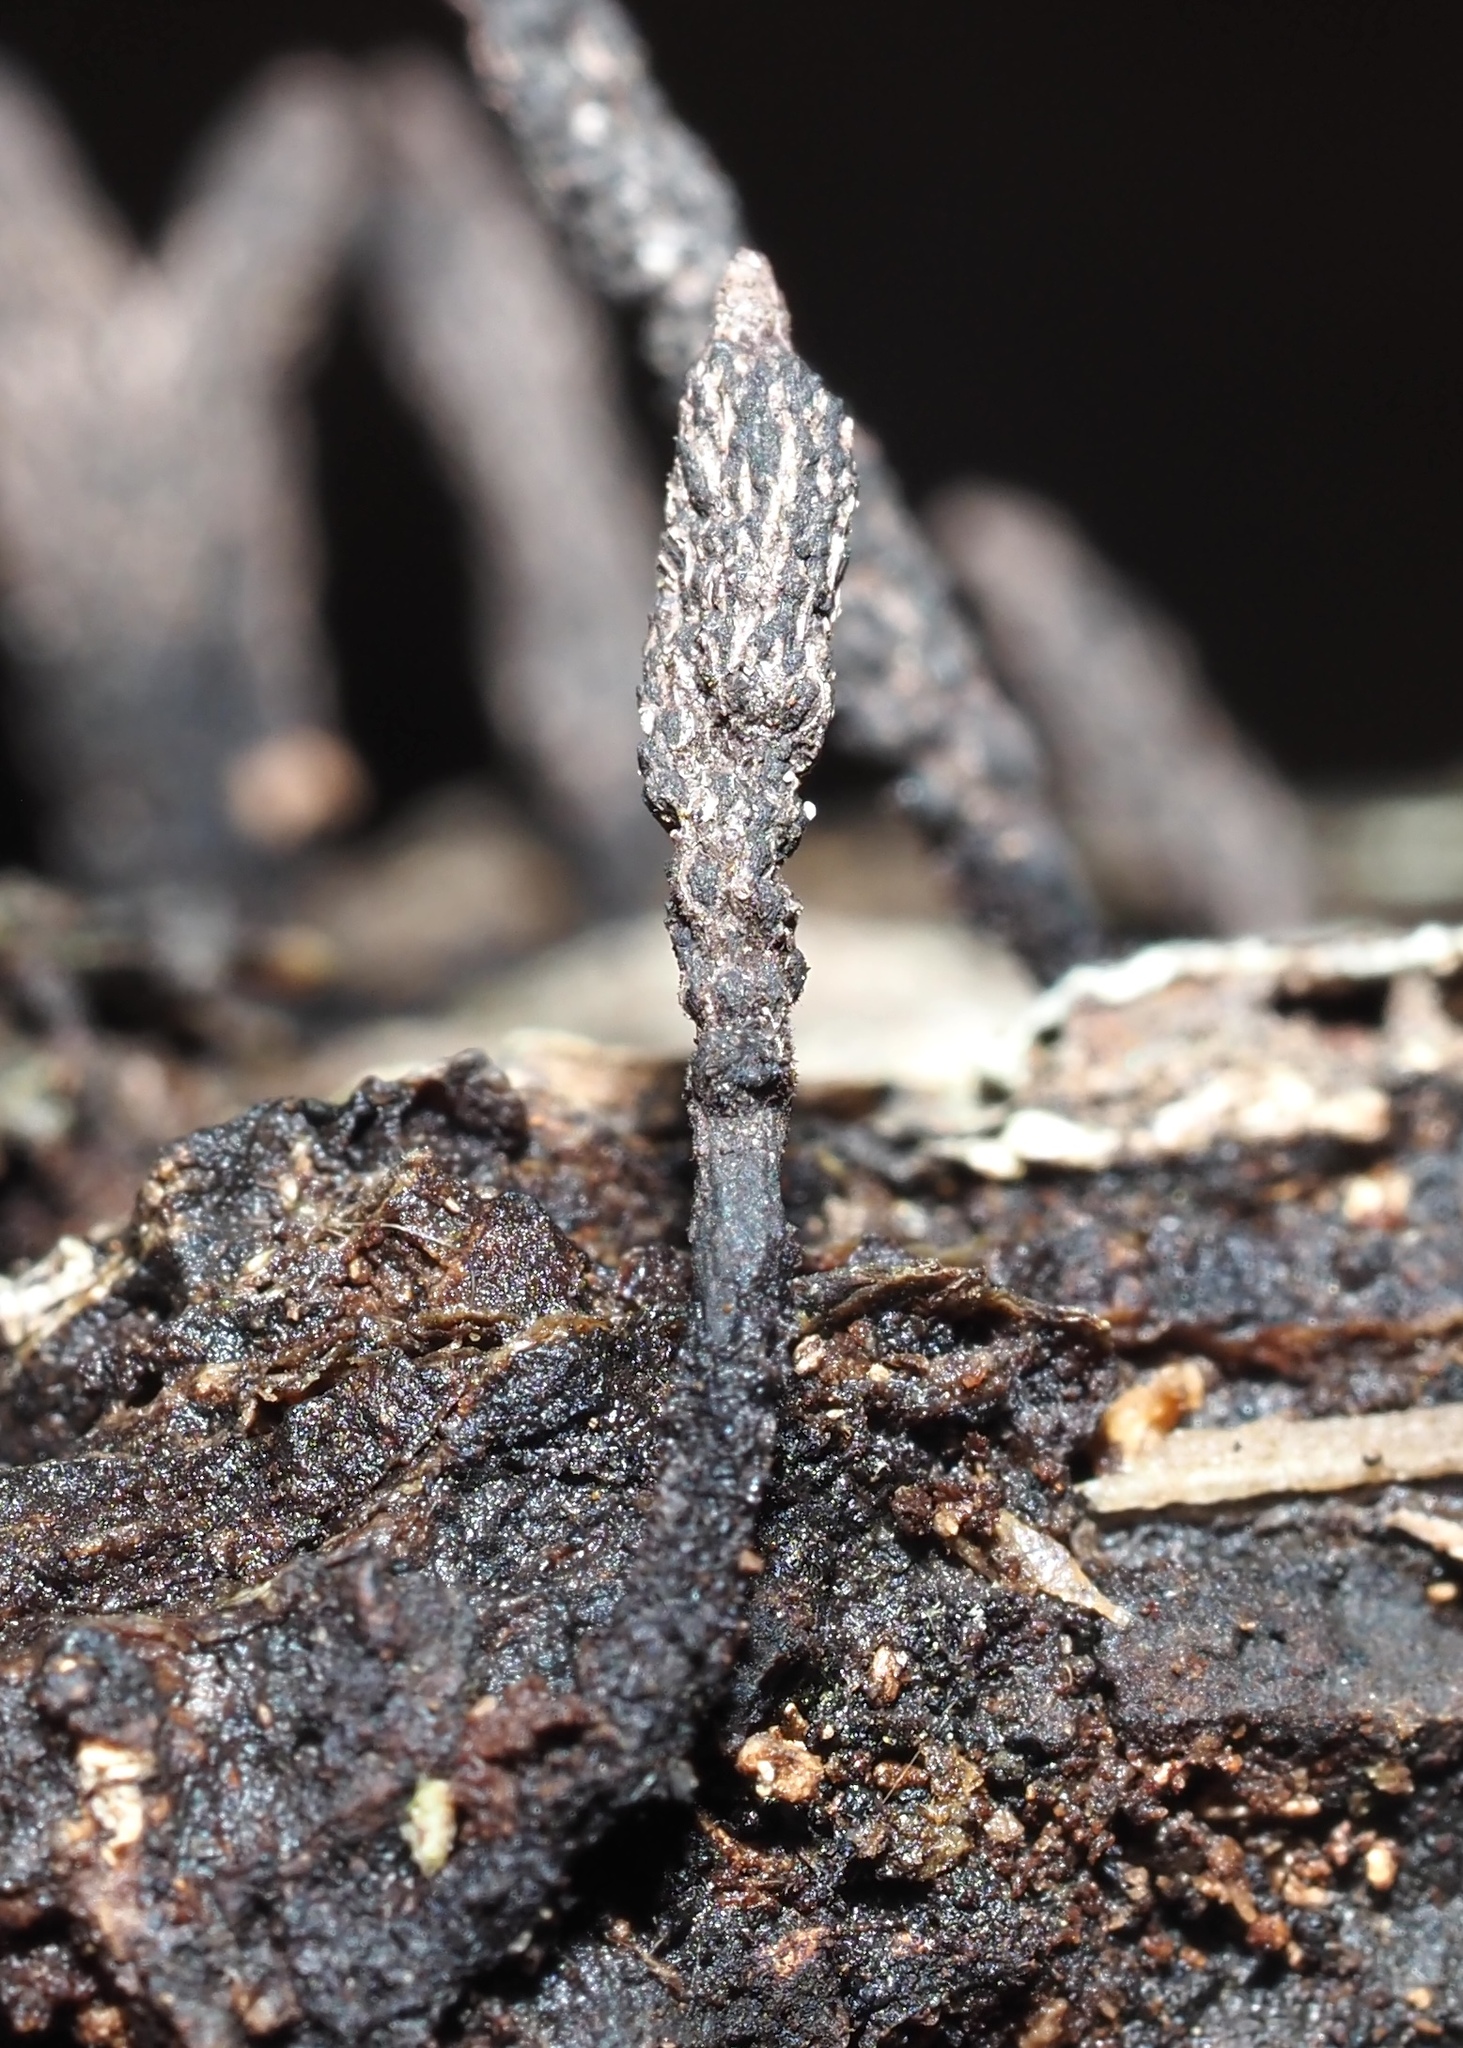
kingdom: Fungi
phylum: Ascomycota
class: Sordariomycetes
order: Xylariales
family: Xylariaceae
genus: Xylaria
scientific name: Xylaria
